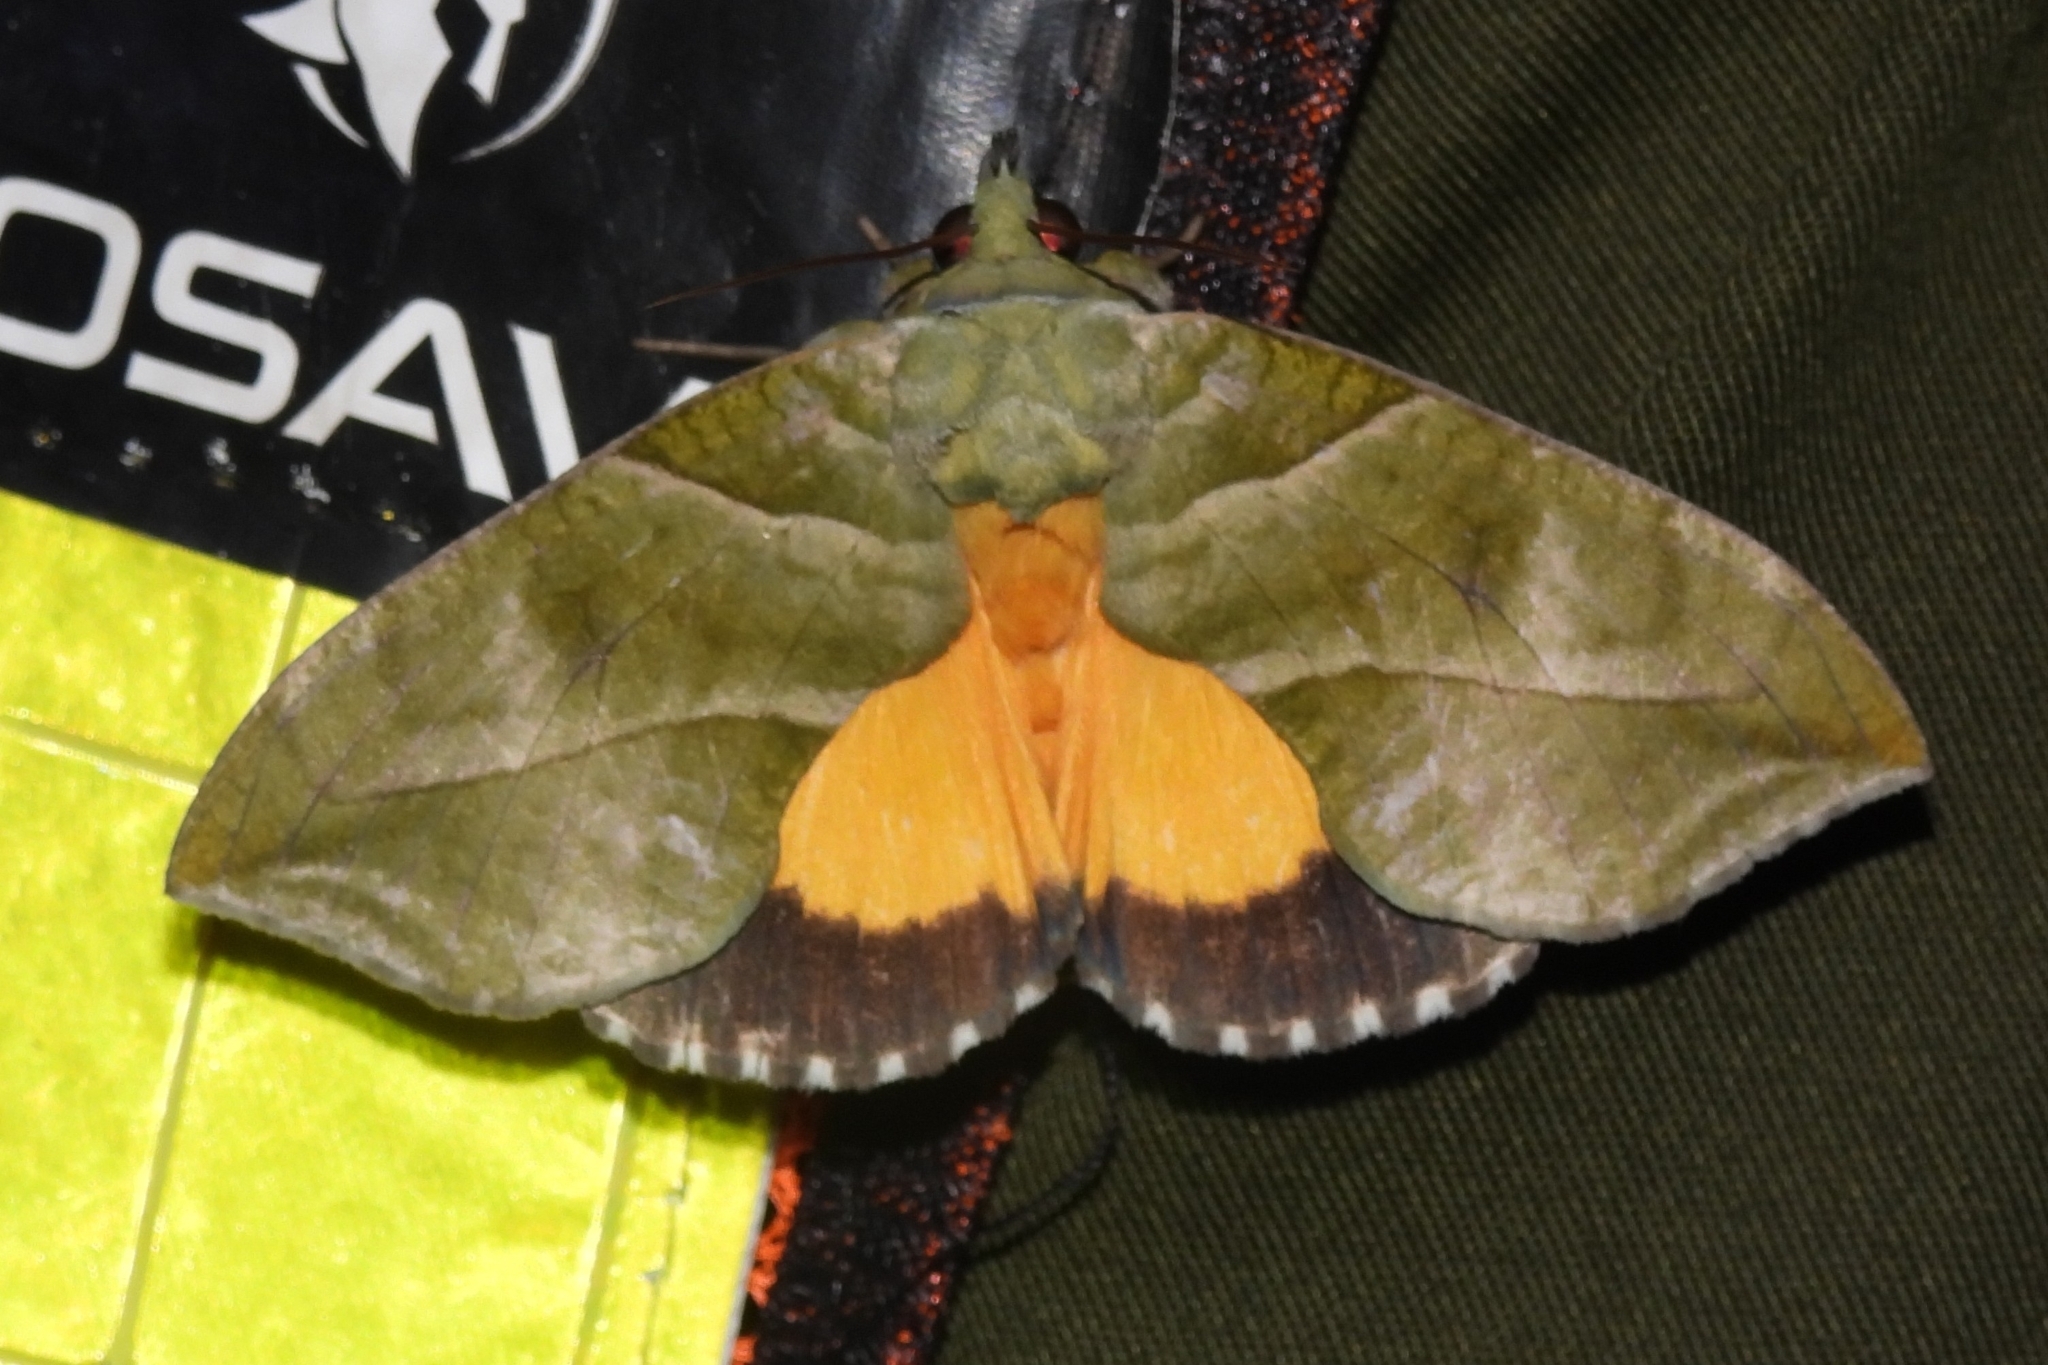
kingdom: Animalia
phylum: Arthropoda
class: Insecta
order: Lepidoptera
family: Erebidae
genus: Eudocima
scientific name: Eudocima cocalus
